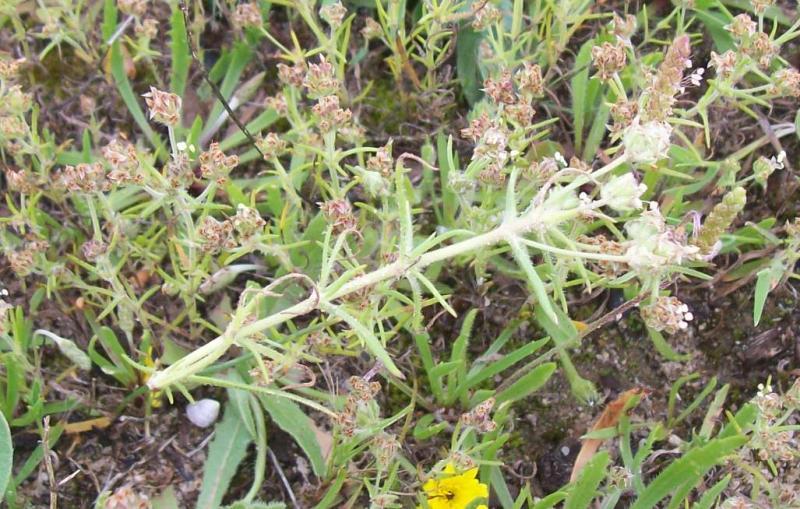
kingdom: Plantae
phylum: Tracheophyta
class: Magnoliopsida
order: Lamiales
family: Plantaginaceae
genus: Plantago
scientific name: Plantago afra
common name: Glandular plantain
